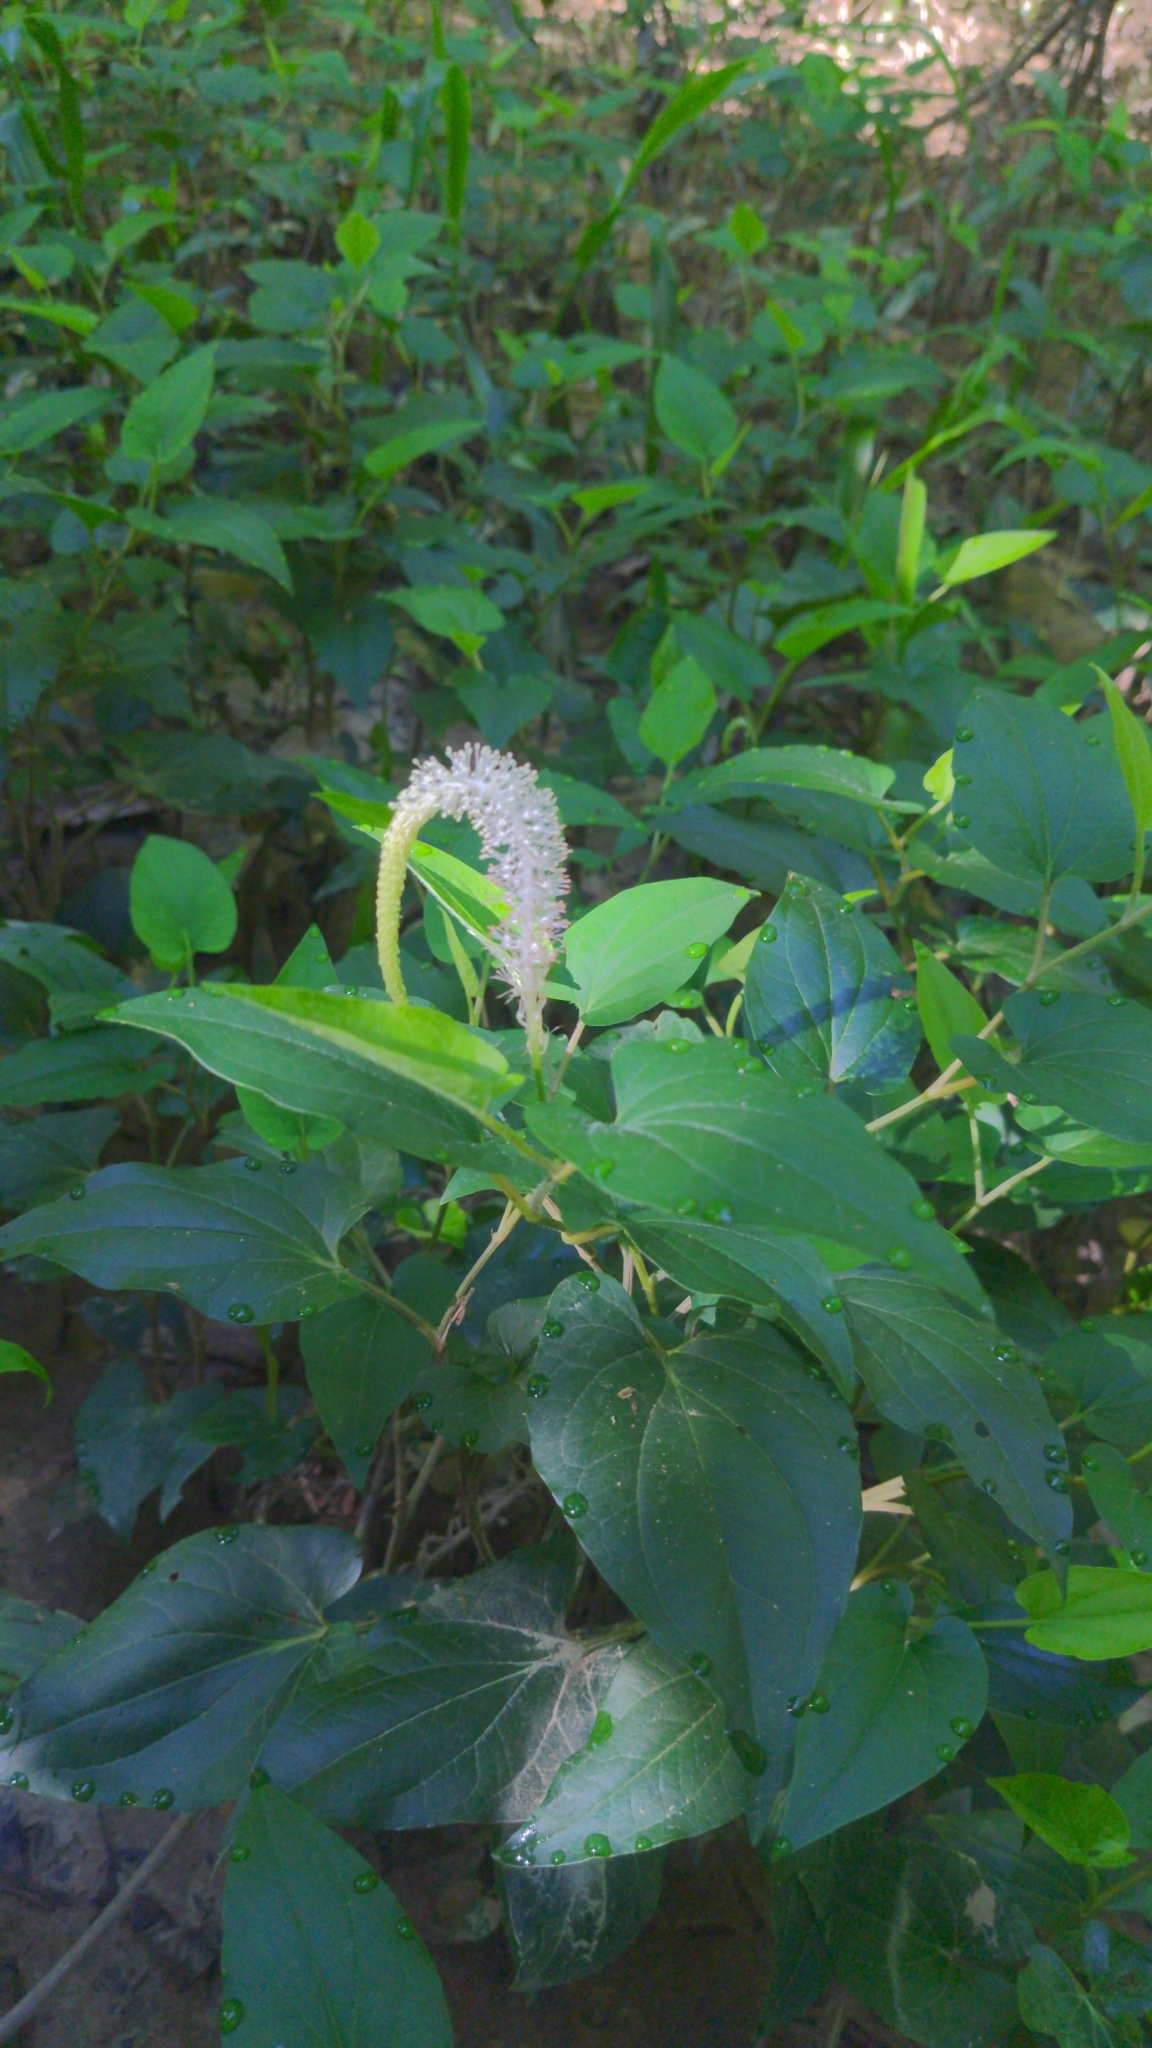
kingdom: Plantae
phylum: Tracheophyta
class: Magnoliopsida
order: Piperales
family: Saururaceae
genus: Saururus
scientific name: Saururus cernuus
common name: Lizard's-tail
